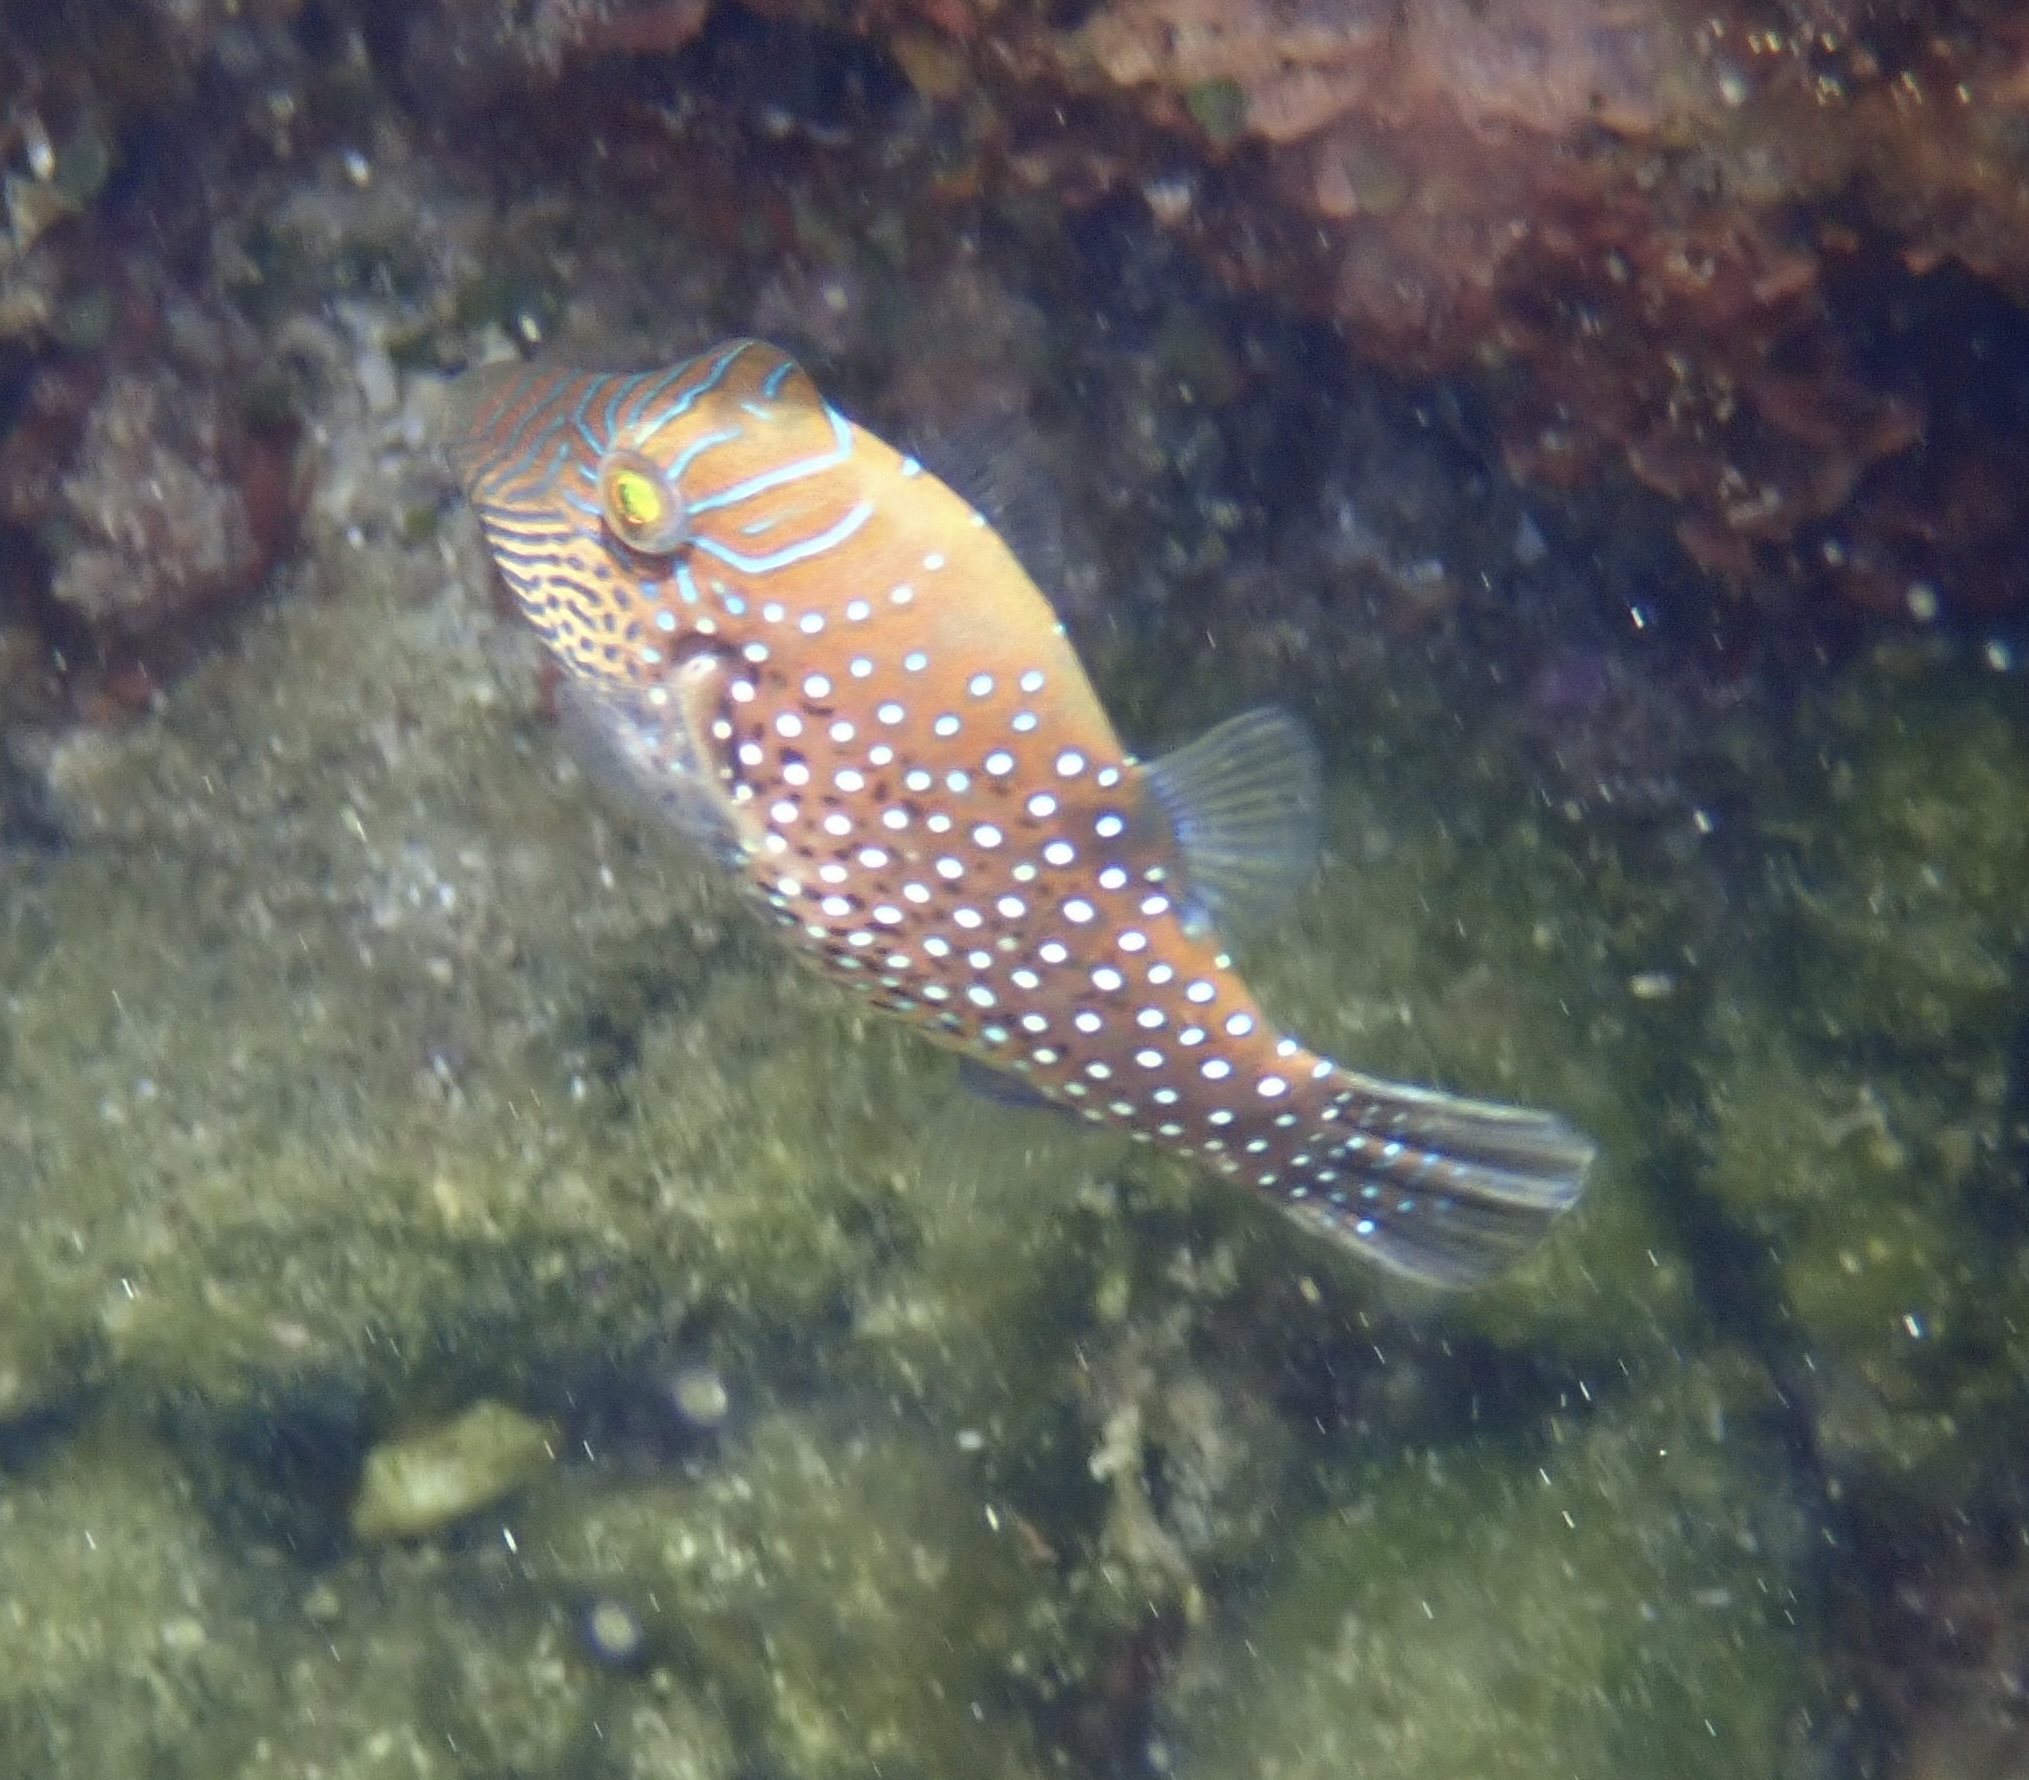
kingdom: Animalia
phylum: Chordata
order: Tetraodontiformes
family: Tetraodontidae
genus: Canthigaster
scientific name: Canthigaster amboinensis
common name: Ambon pufferfish
